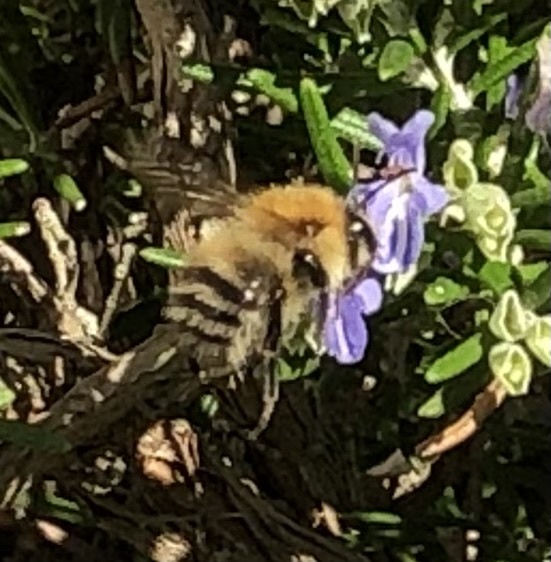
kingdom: Animalia
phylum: Arthropoda
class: Insecta
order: Hymenoptera
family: Apidae
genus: Bombus
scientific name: Bombus pascuorum
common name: Common carder bee
